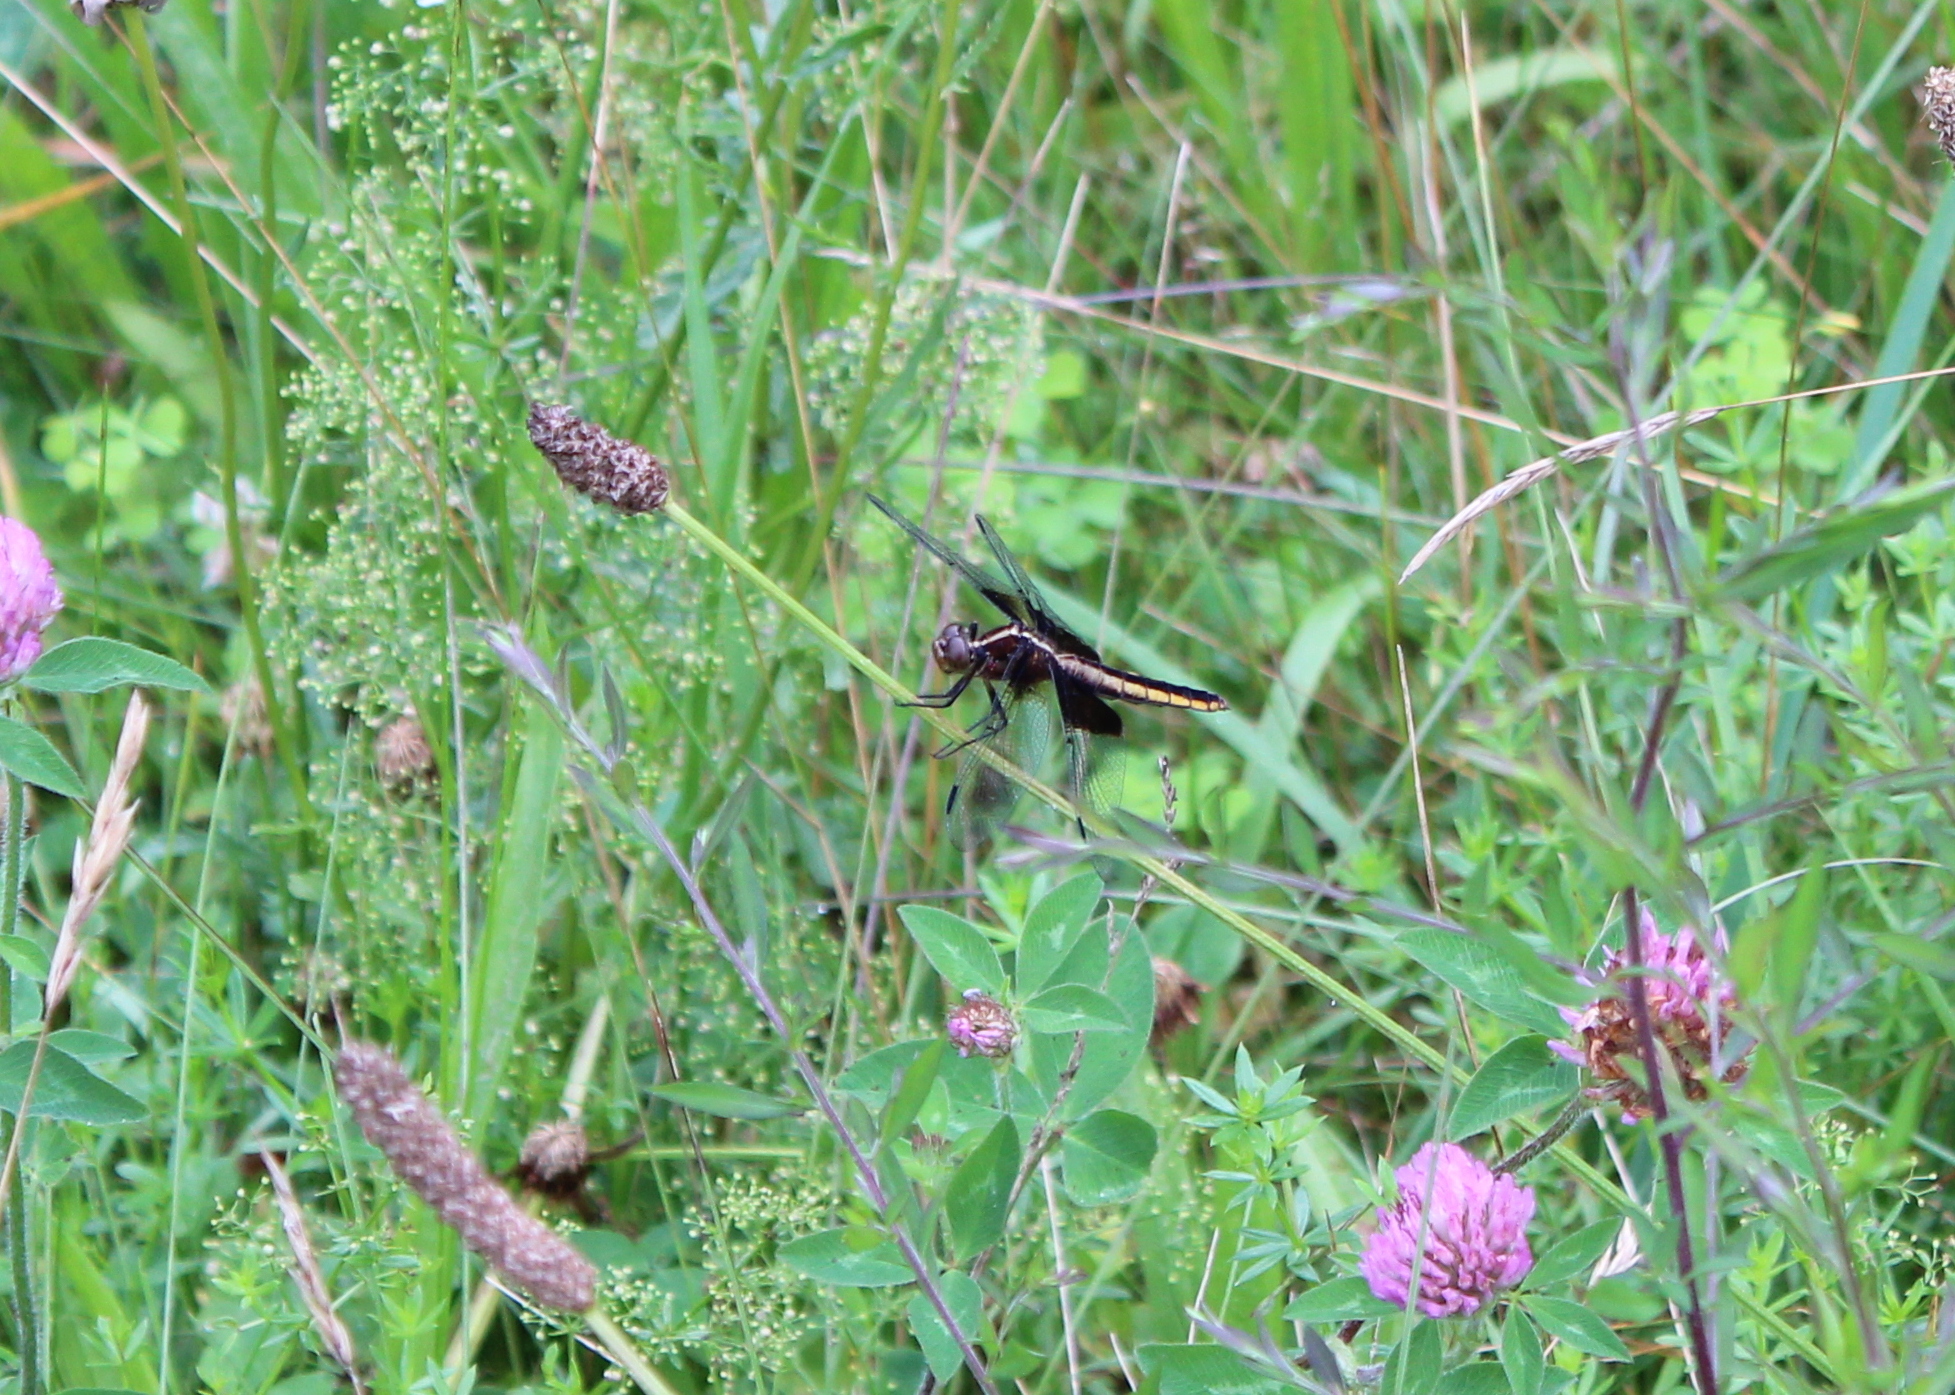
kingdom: Animalia
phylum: Arthropoda
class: Insecta
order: Odonata
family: Libellulidae
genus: Libellula
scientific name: Libellula luctuosa
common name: Widow skimmer
